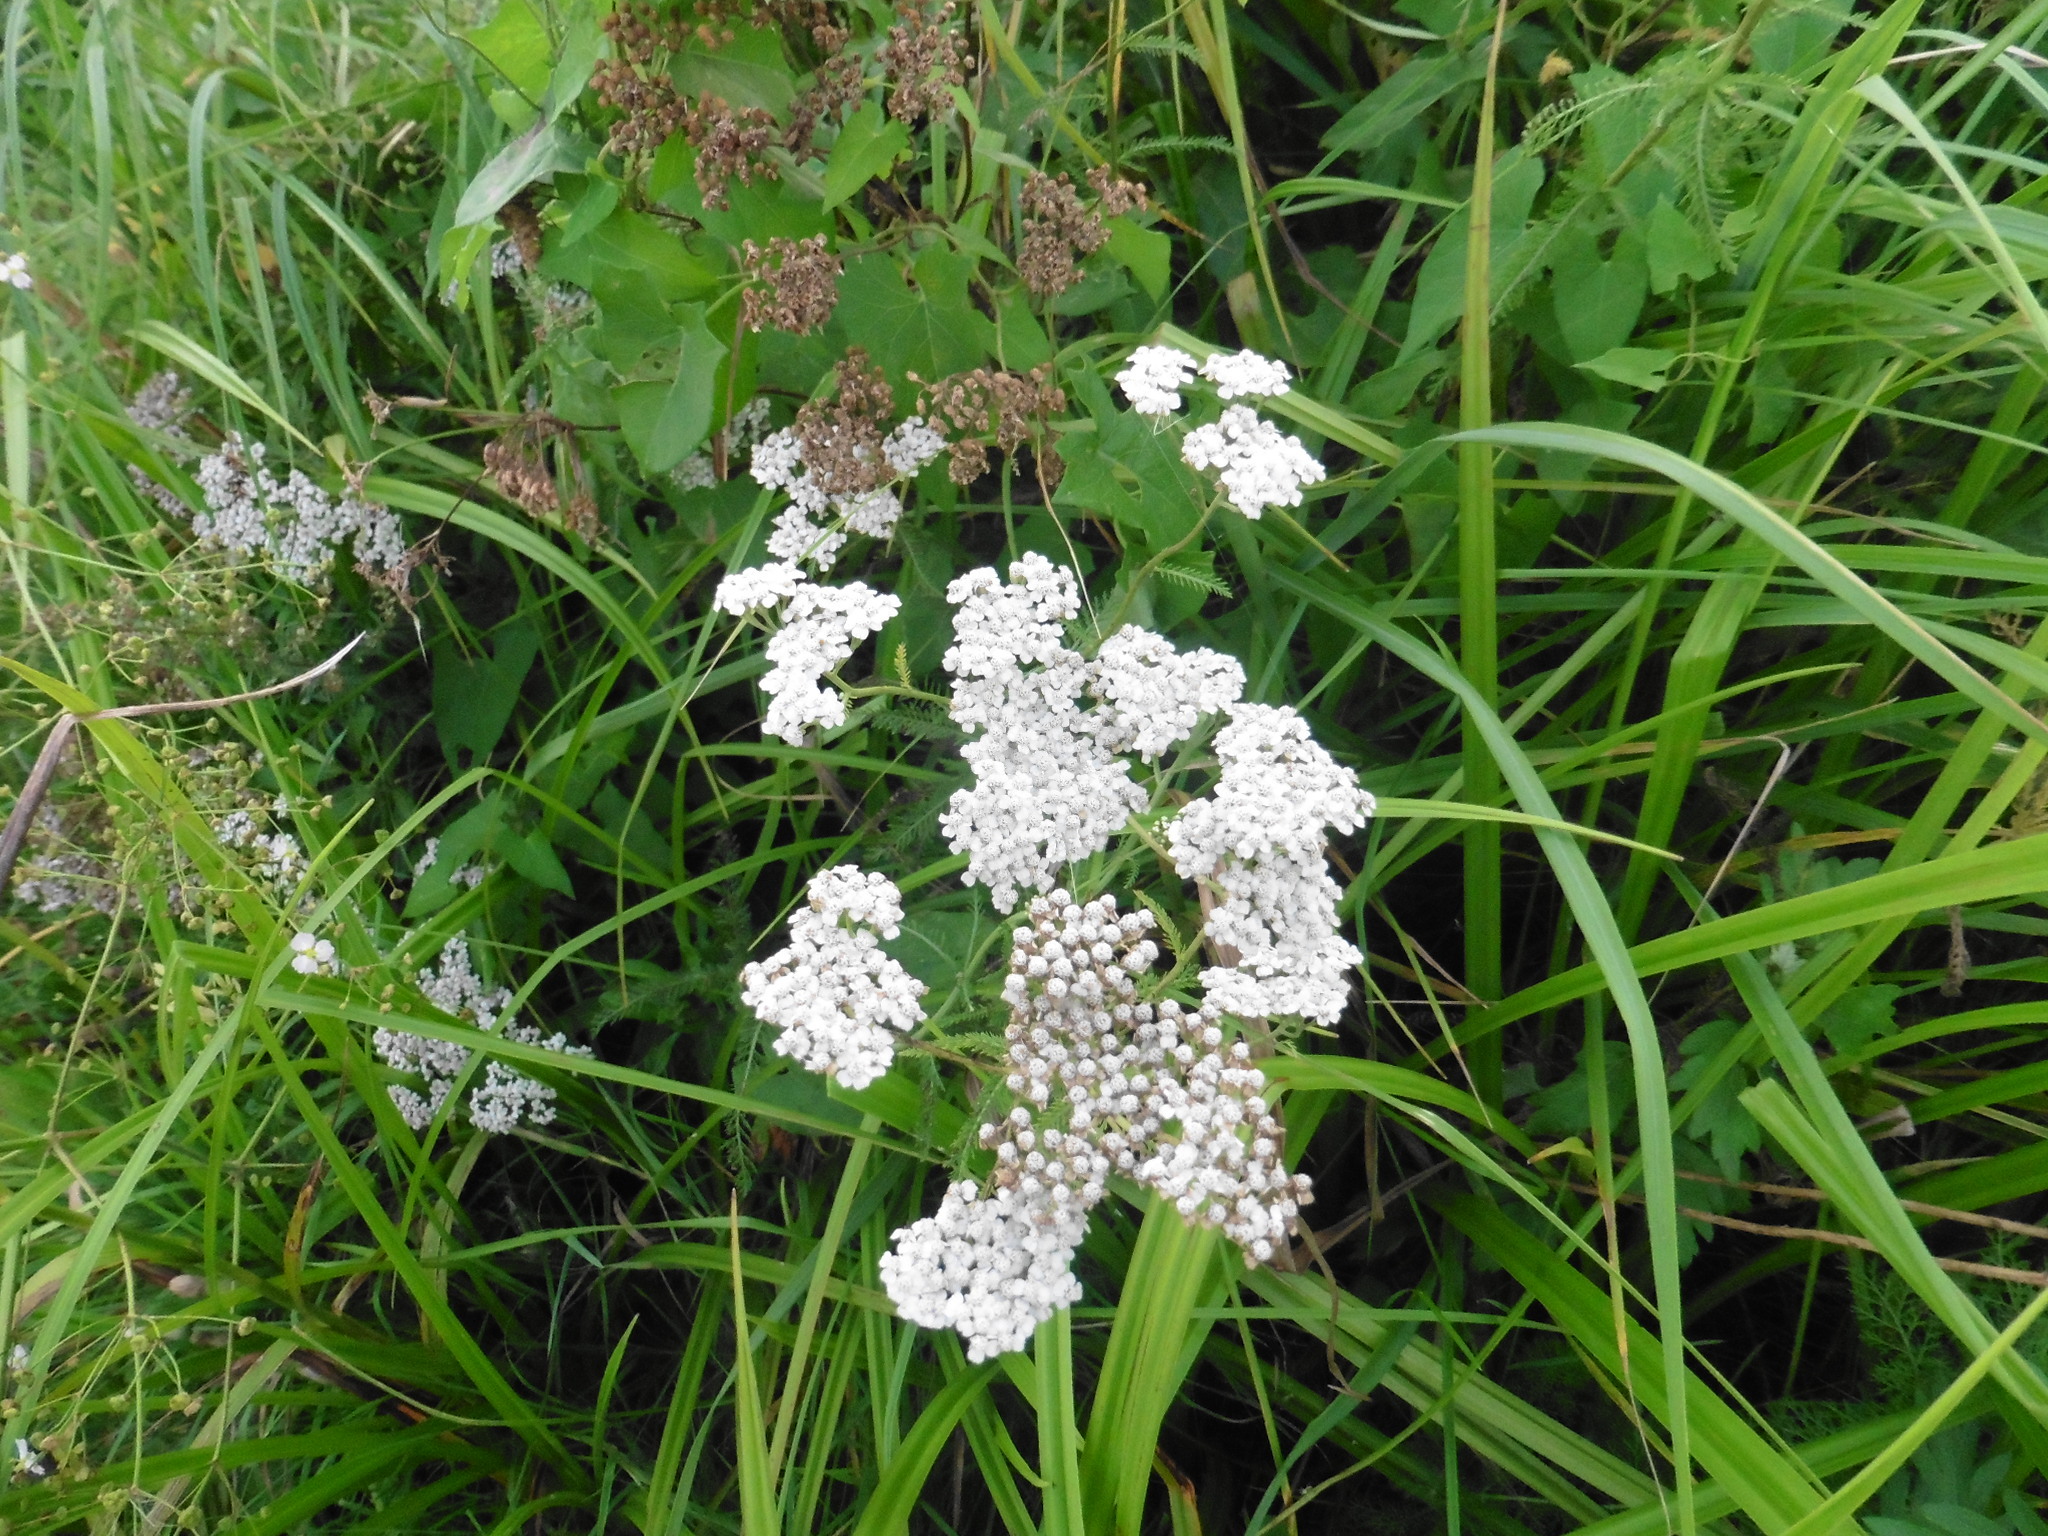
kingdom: Plantae
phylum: Tracheophyta
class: Magnoliopsida
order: Asterales
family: Asteraceae
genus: Achillea
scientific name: Achillea millefolium
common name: Yarrow
